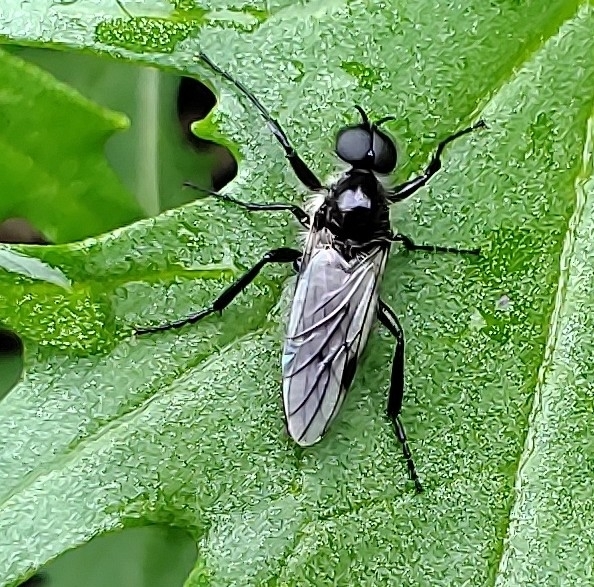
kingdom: Animalia
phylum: Arthropoda
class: Insecta
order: Diptera
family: Bibionidae
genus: Bibio
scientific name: Bibio albipennis
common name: White-winged march fly
